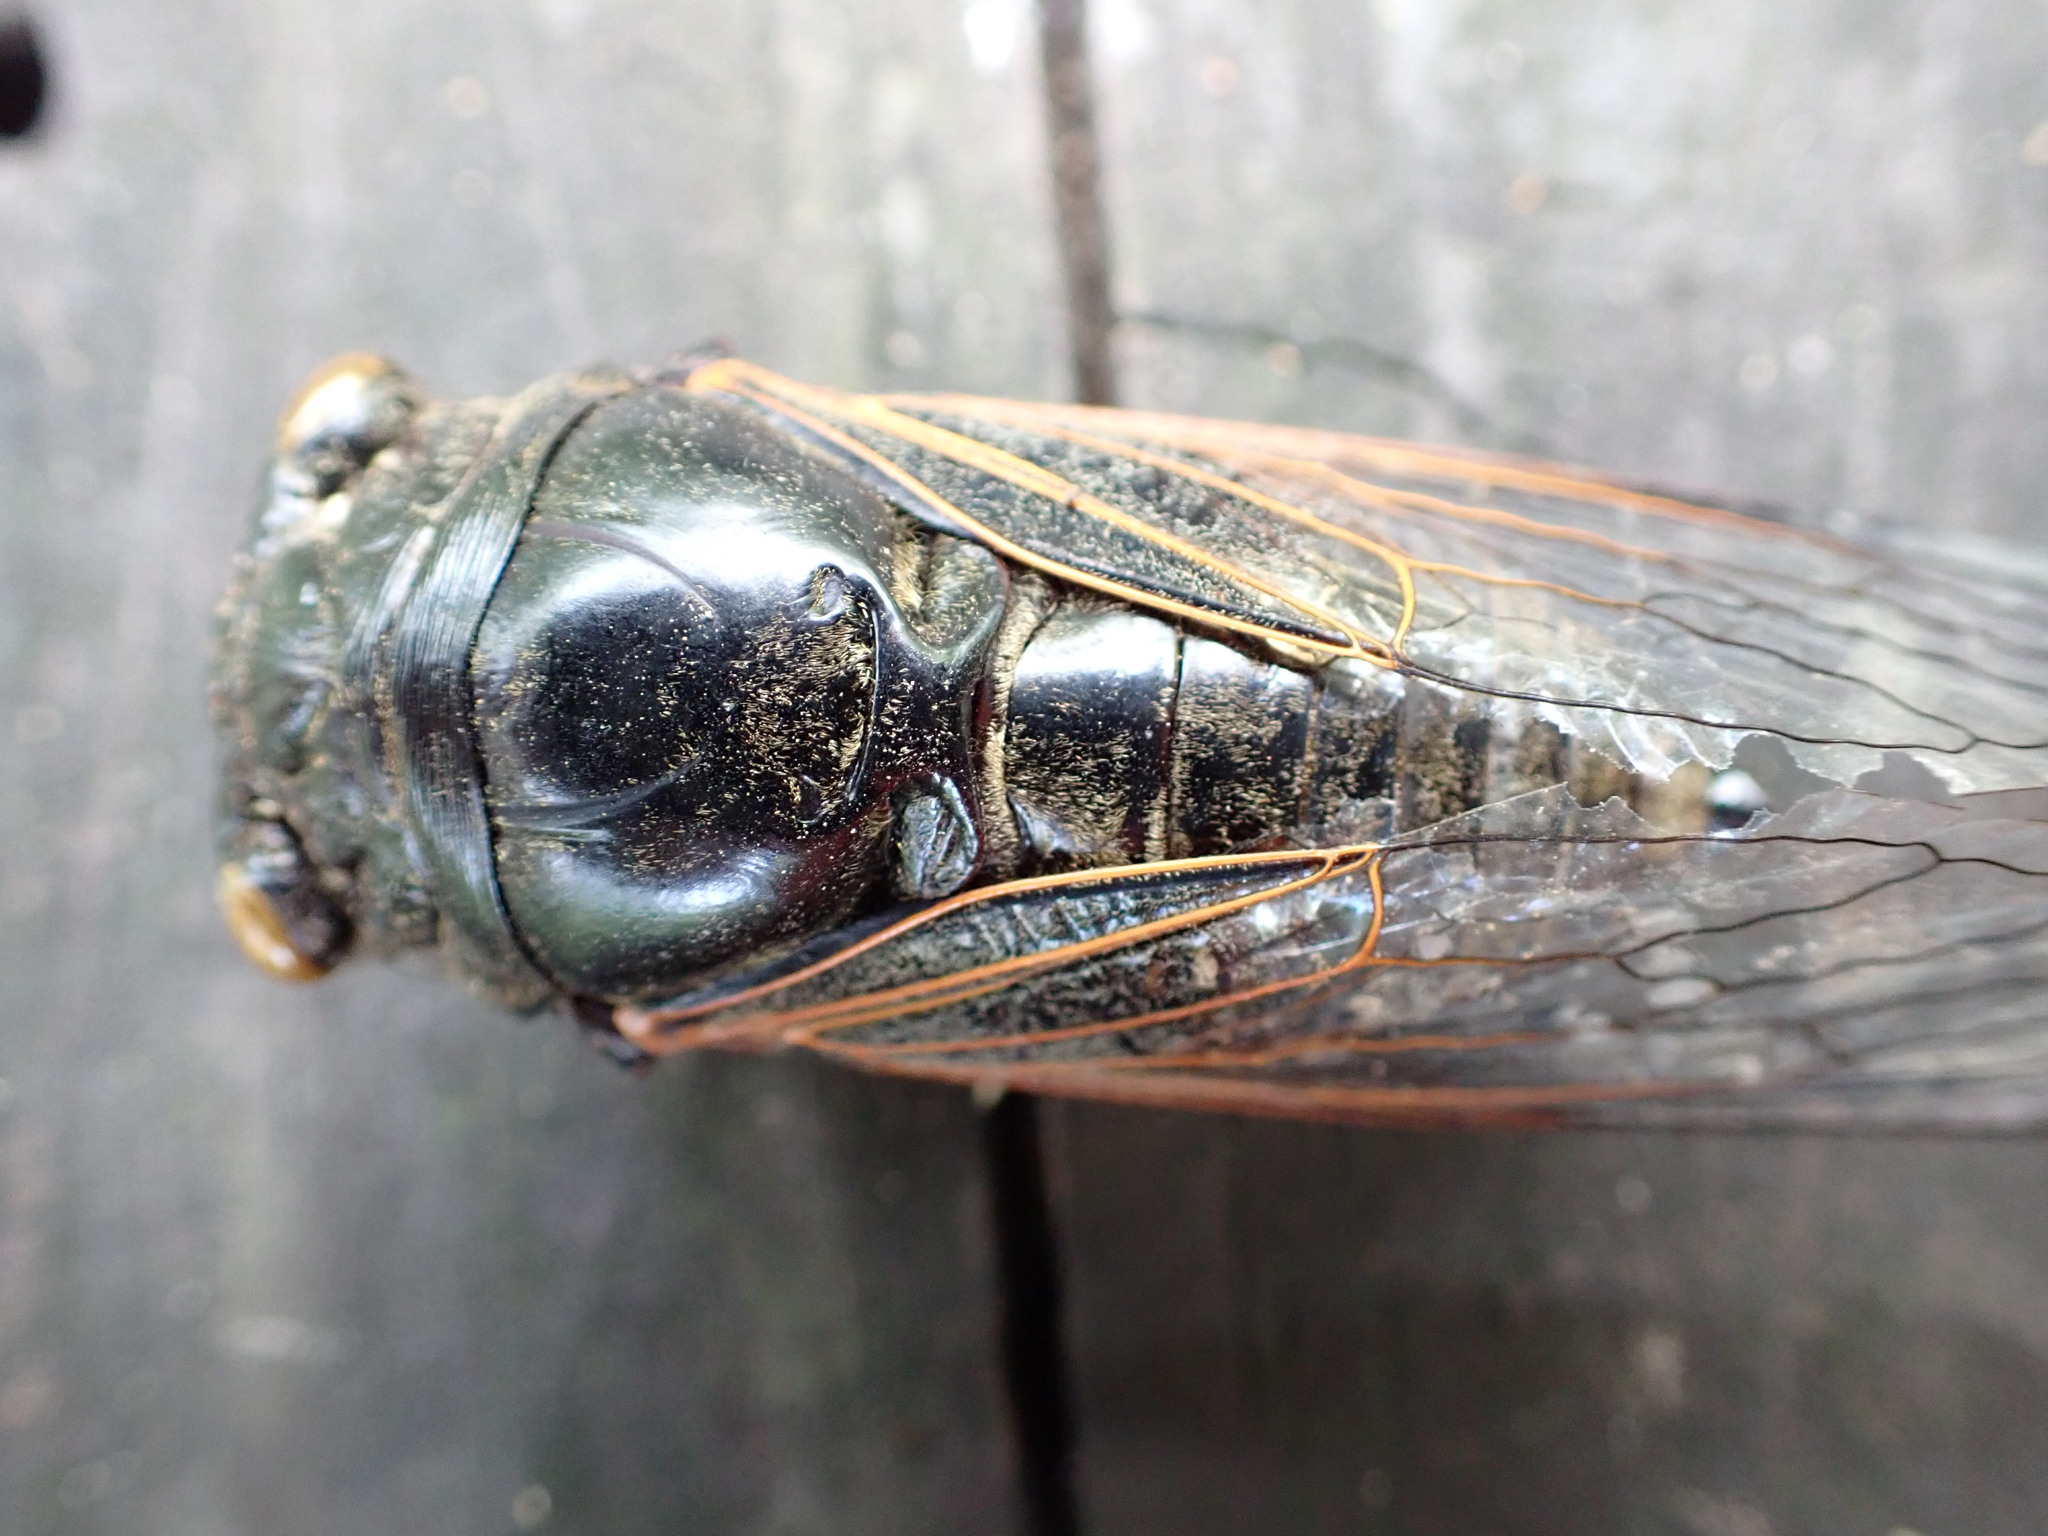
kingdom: Animalia
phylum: Arthropoda
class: Insecta
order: Hemiptera
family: Cicadidae
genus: Cryptotympana
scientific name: Cryptotympana atrata
